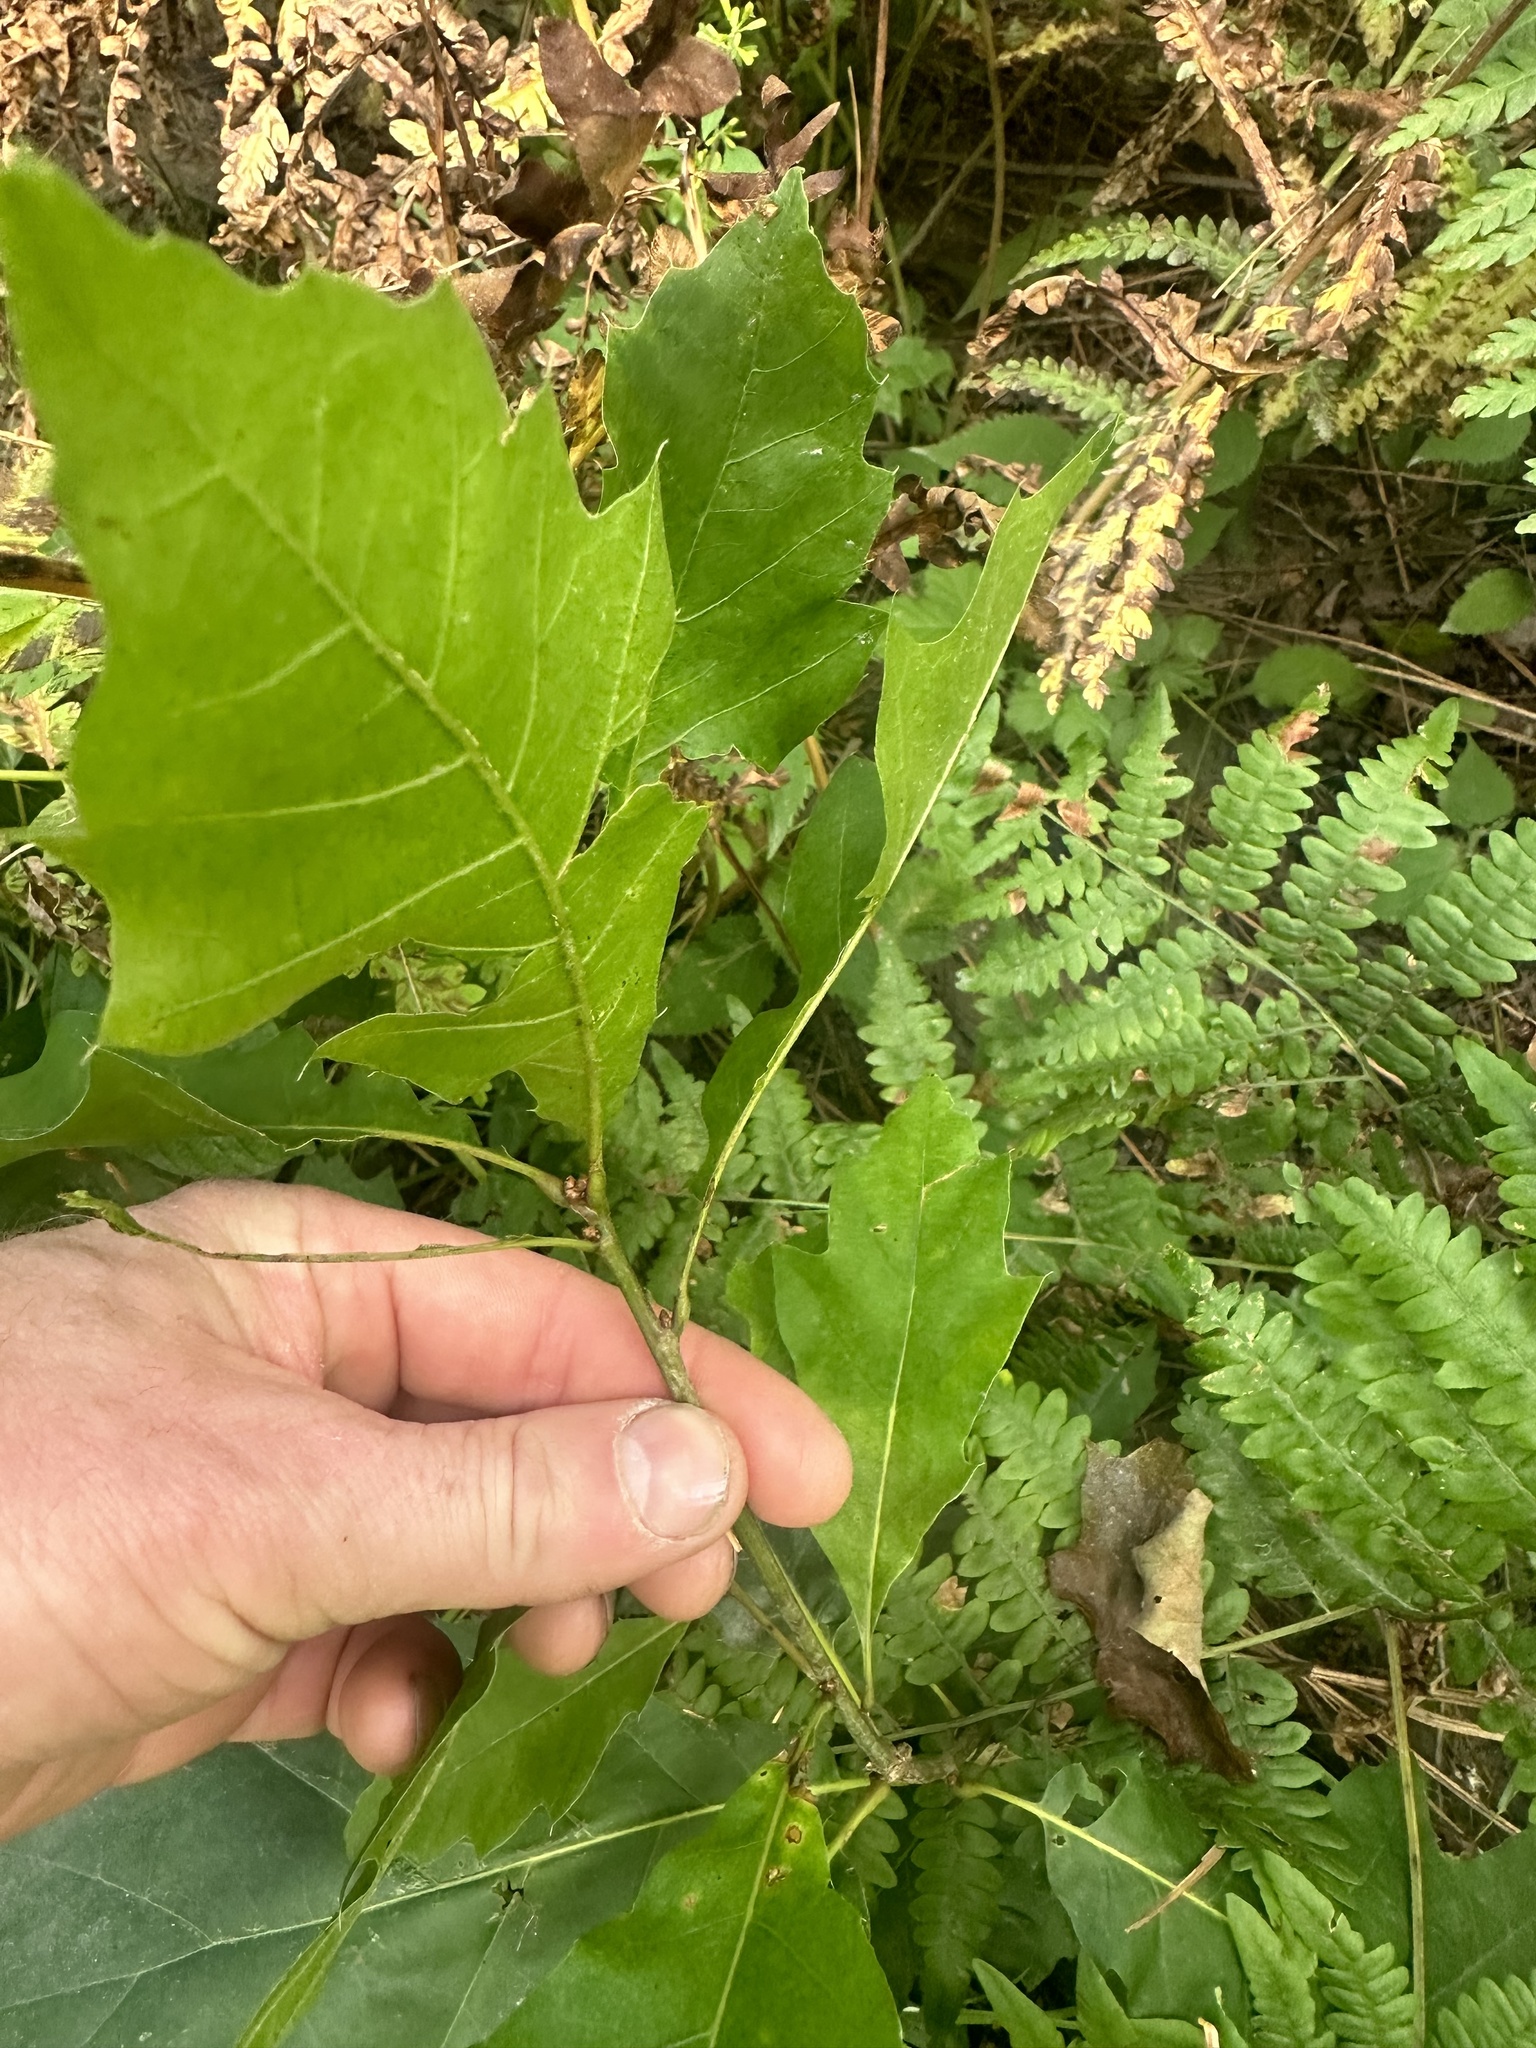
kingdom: Plantae
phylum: Tracheophyta
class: Magnoliopsida
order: Fagales
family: Fagaceae
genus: Quercus
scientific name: Quercus rubra
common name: Red oak
